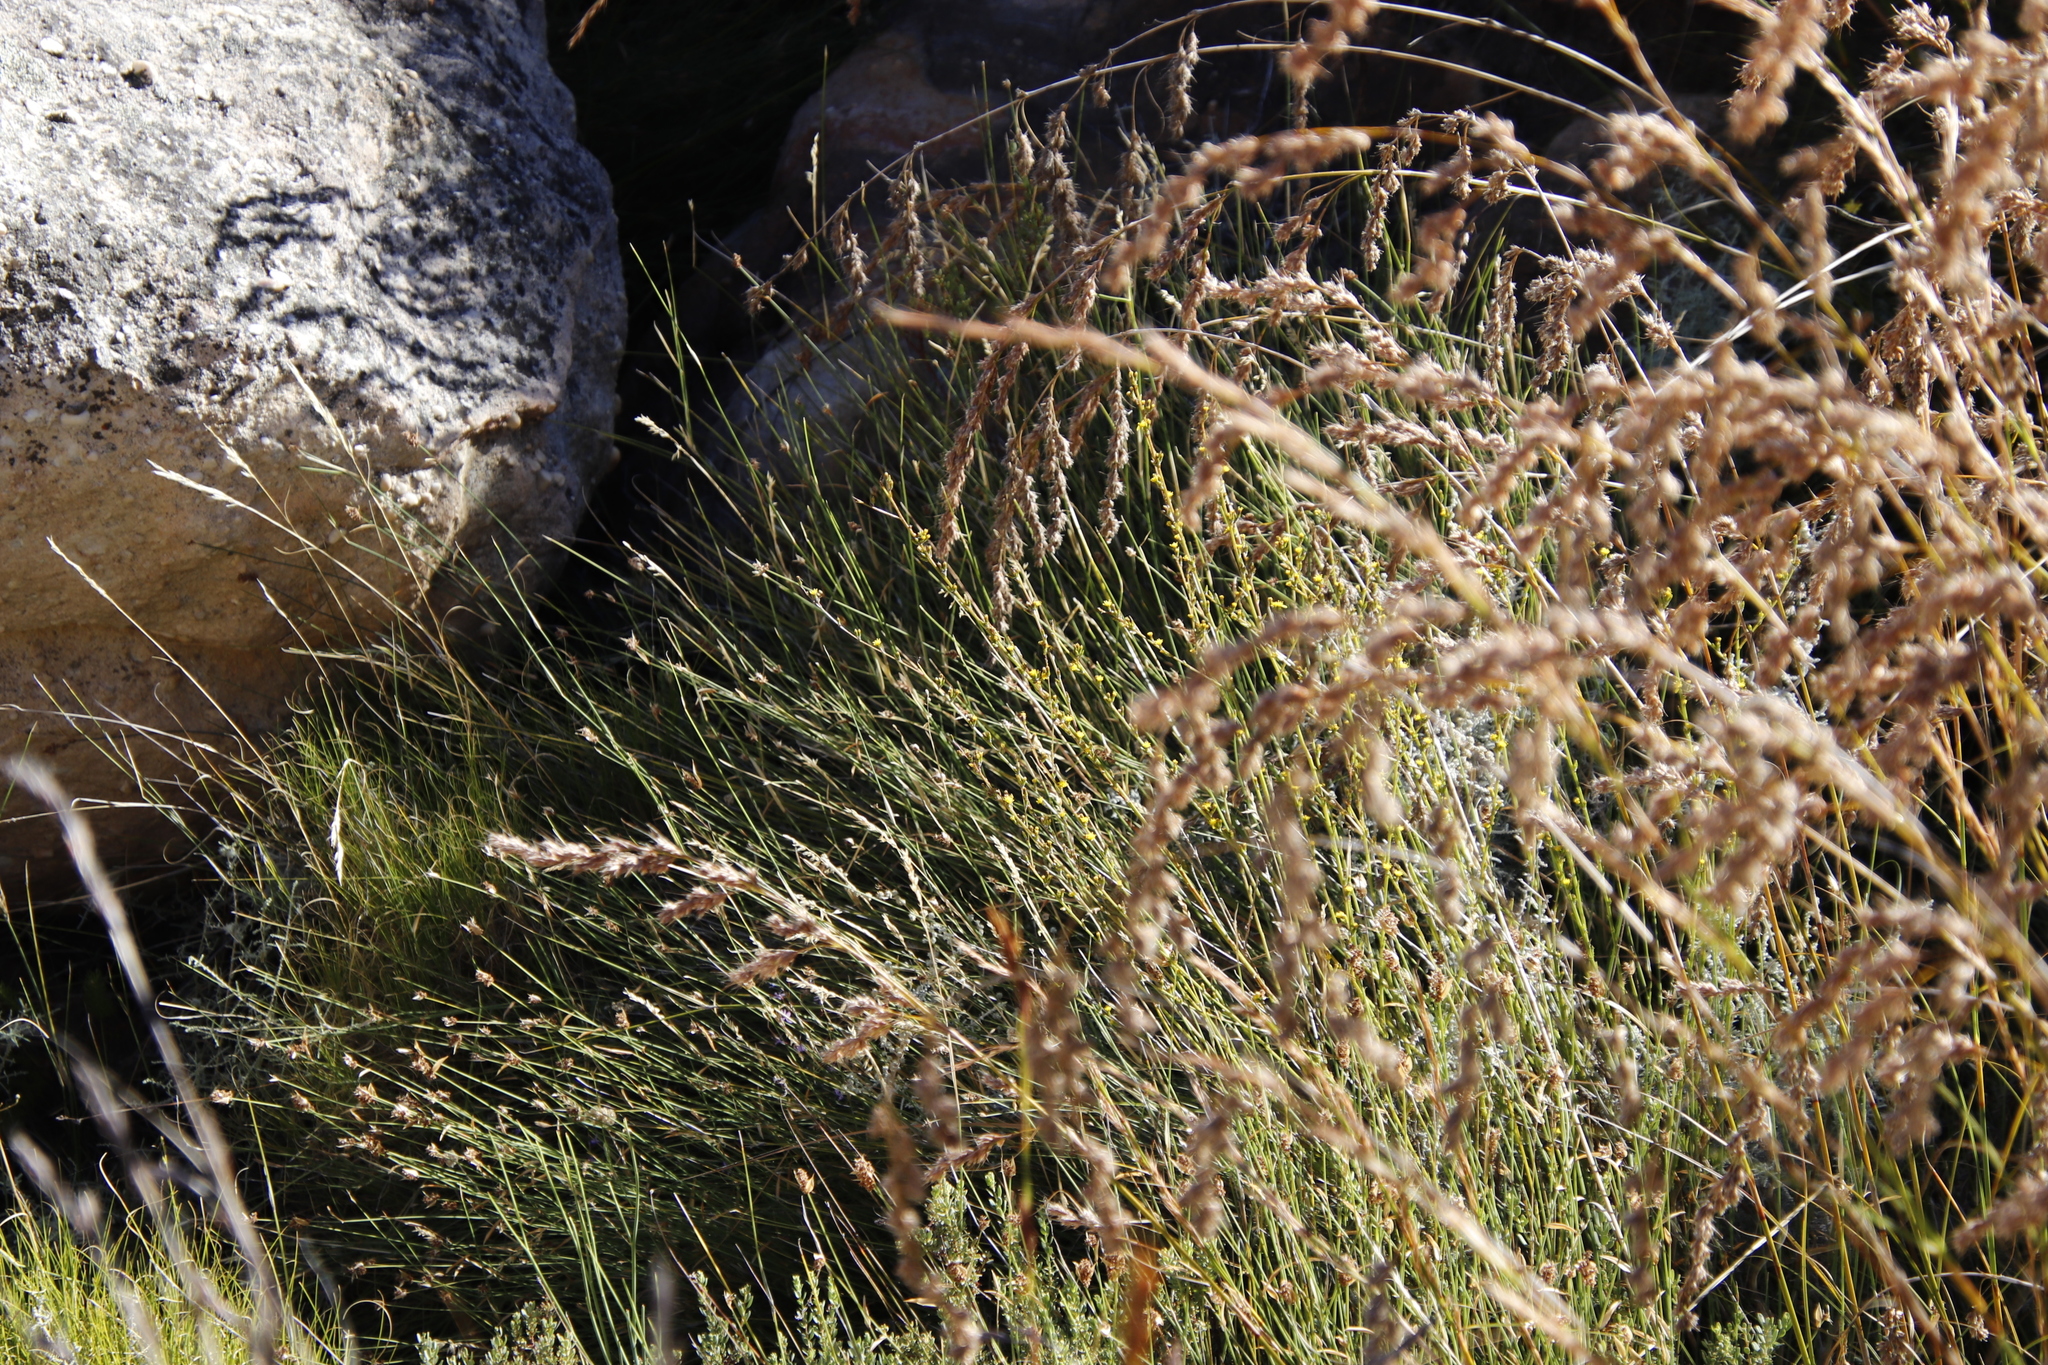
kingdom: Plantae
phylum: Tracheophyta
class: Magnoliopsida
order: Asterales
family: Asteraceae
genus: Senecio
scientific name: Senecio pubigerus
